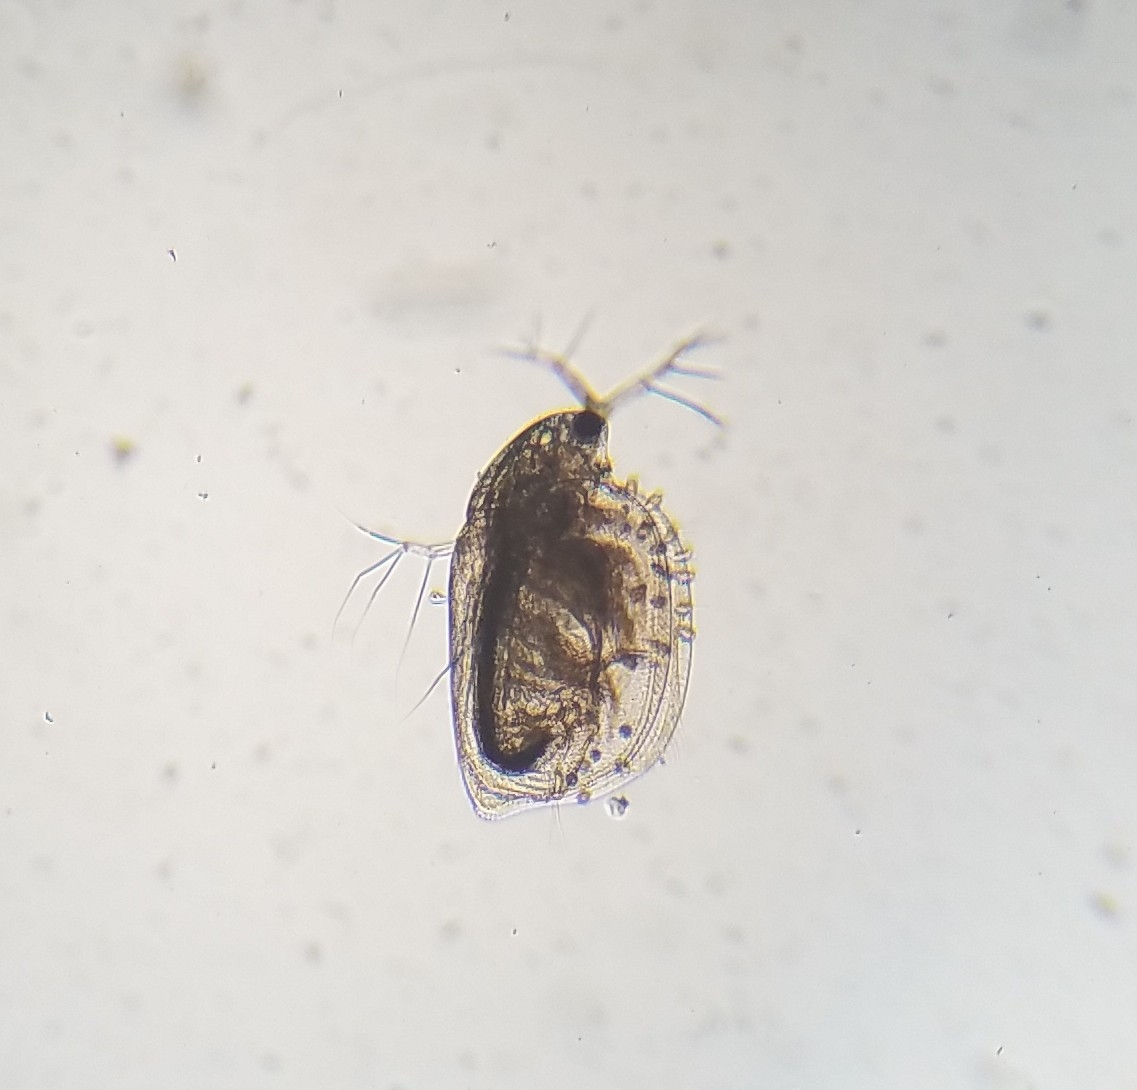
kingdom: Animalia
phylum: Arthropoda
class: Branchiopoda
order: Diplostraca
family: Daphniidae
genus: Simocephalus
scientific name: Simocephalus
